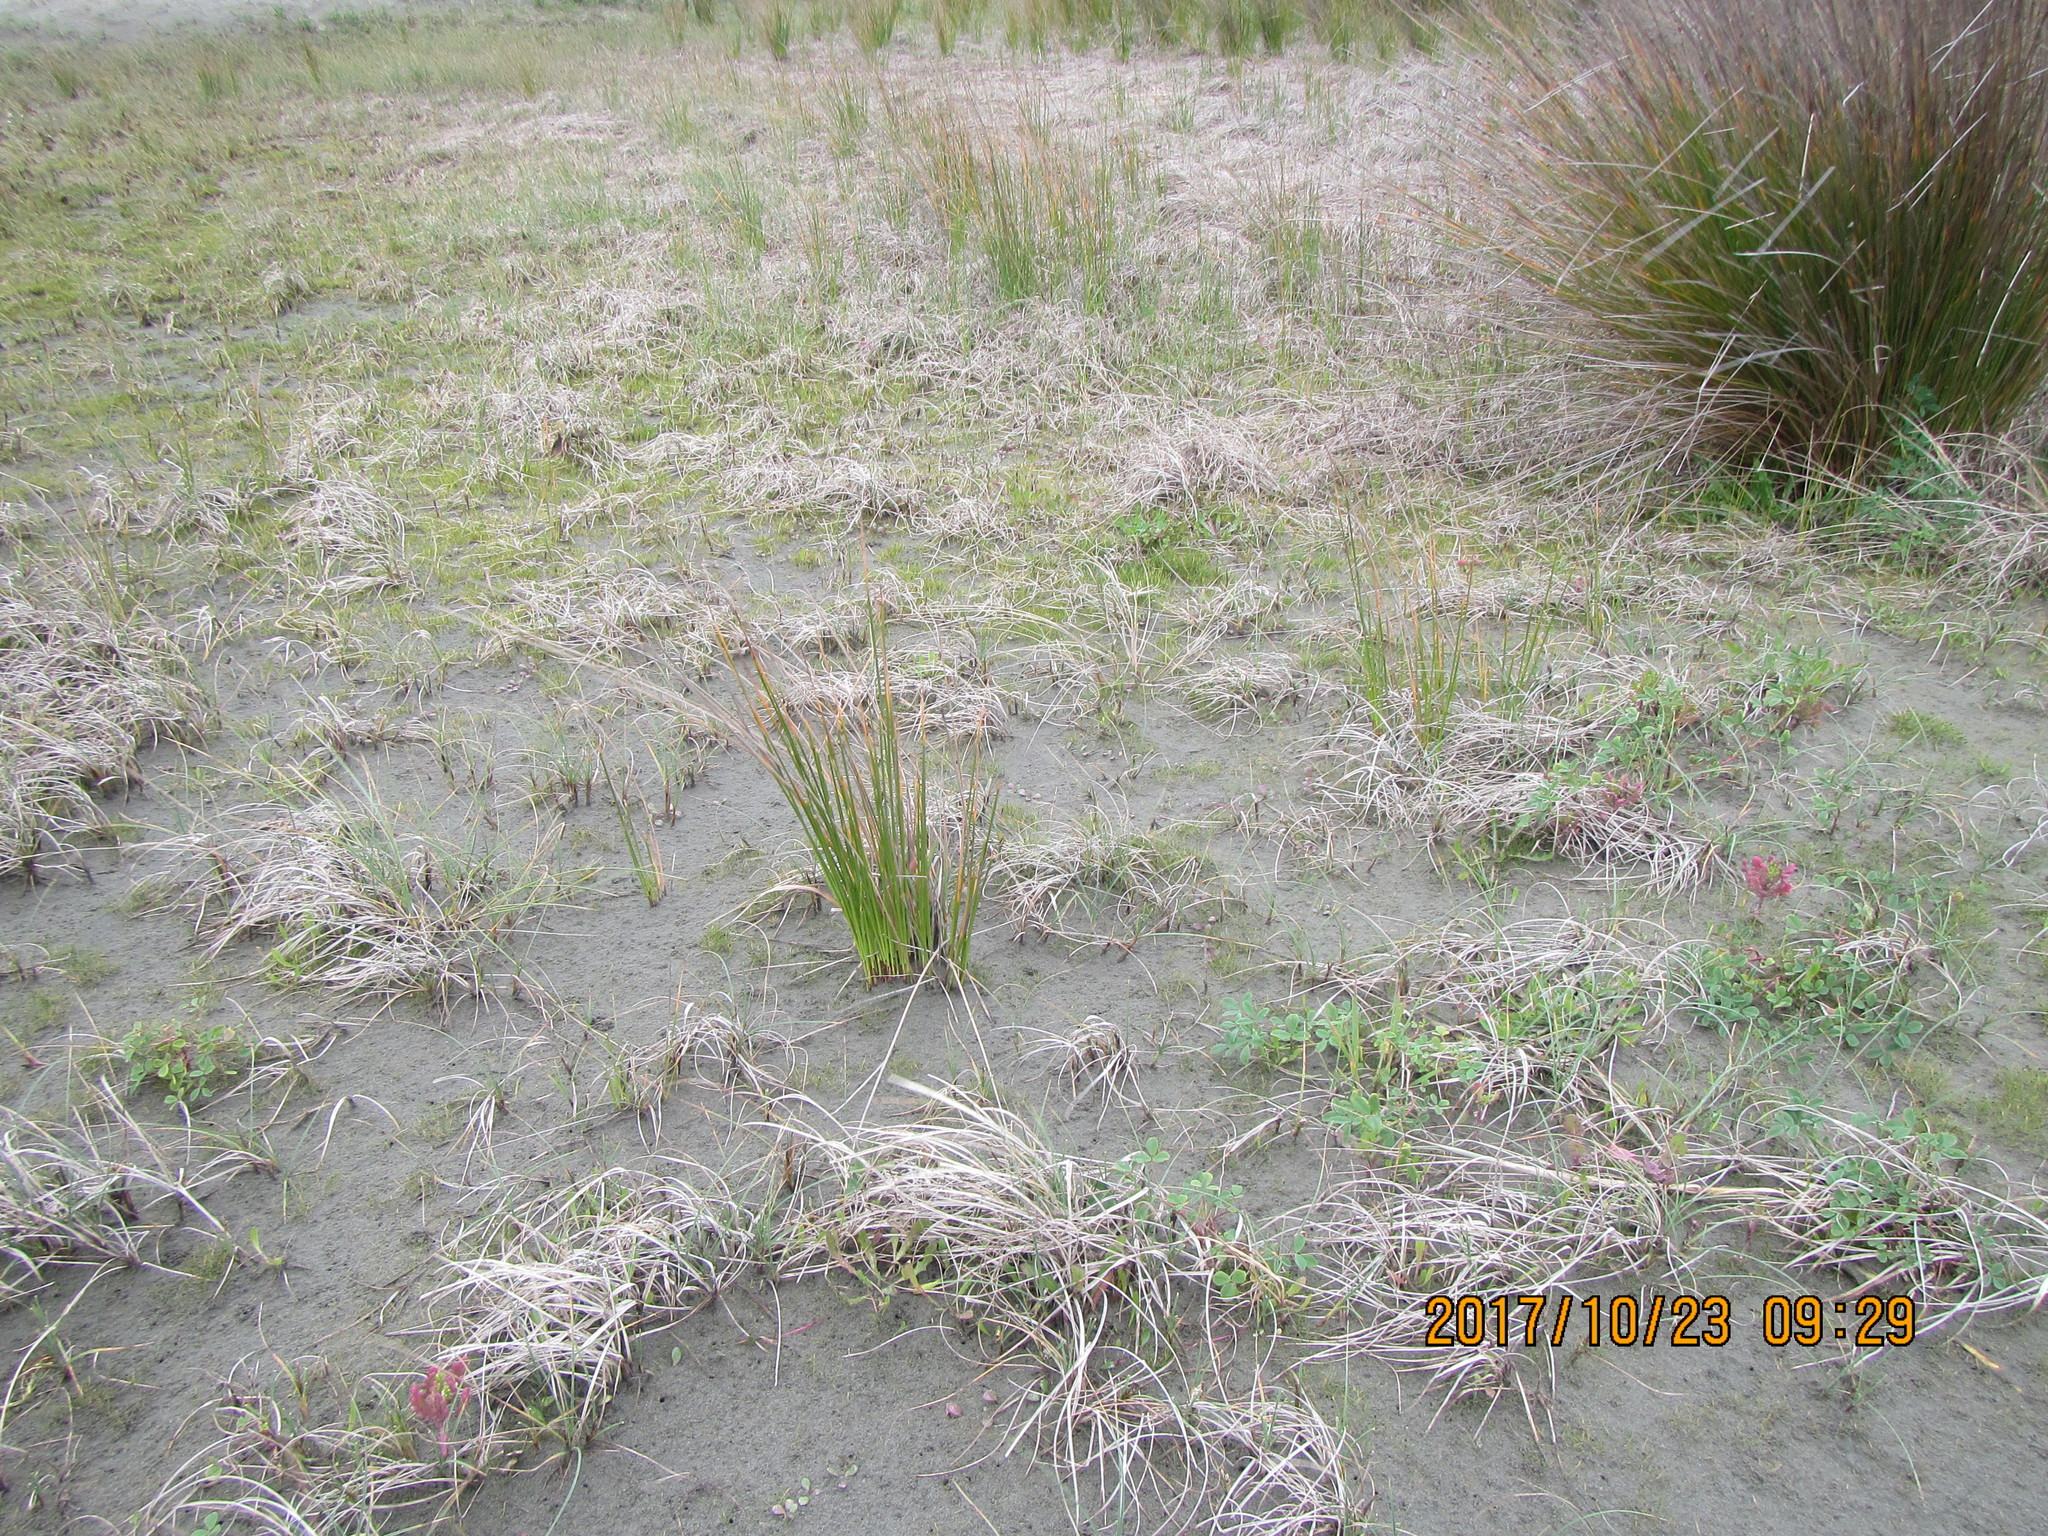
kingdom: Plantae
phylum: Tracheophyta
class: Liliopsida
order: Poales
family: Cyperaceae
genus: Carex
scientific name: Carex pumila
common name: Dwarf sedge
